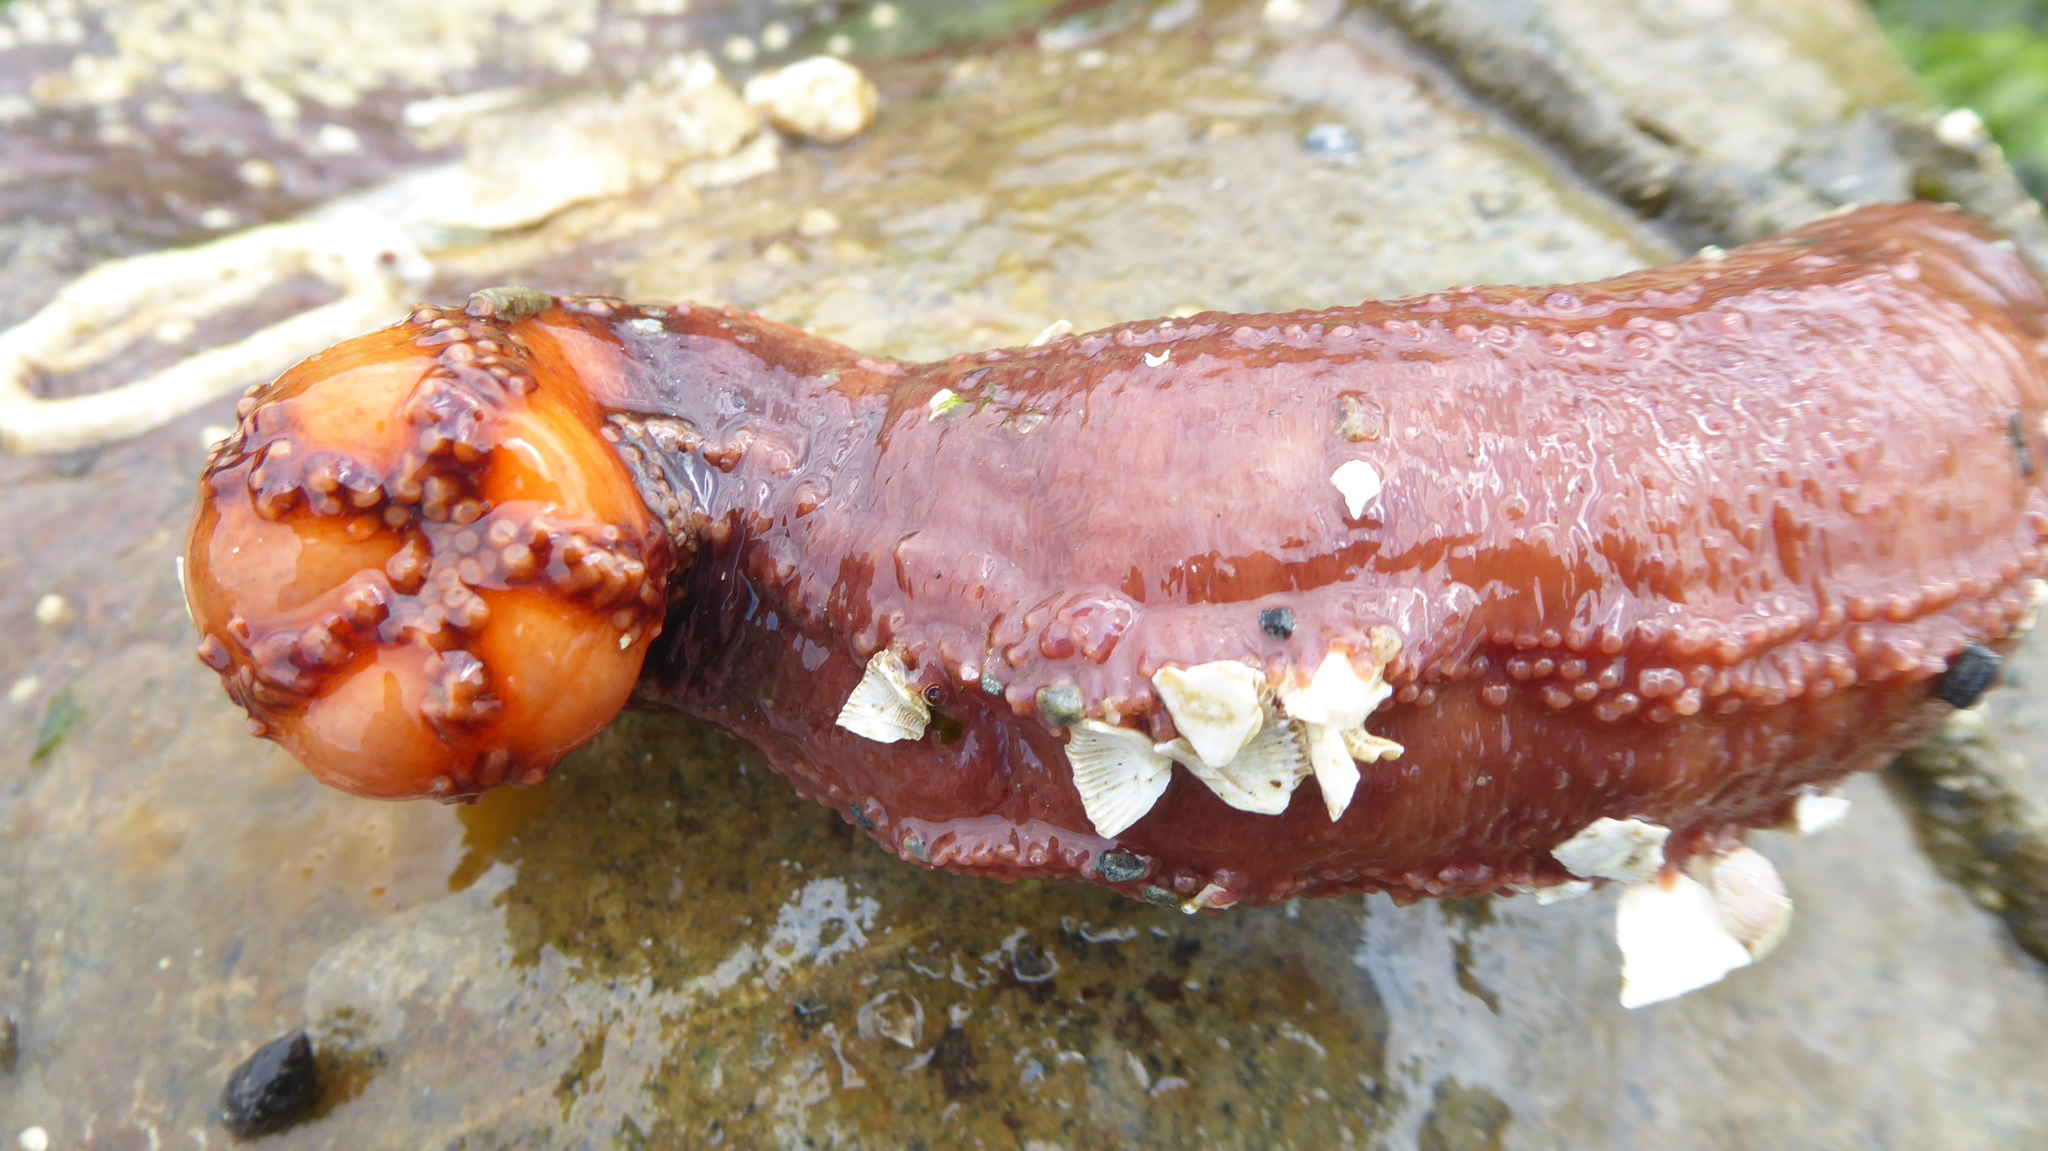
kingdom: Animalia
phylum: Echinodermata
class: Holothuroidea
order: Dendrochirotida
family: Cucumariidae
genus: Cucumaria
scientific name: Cucumaria miniata
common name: Orange sea cucumber
